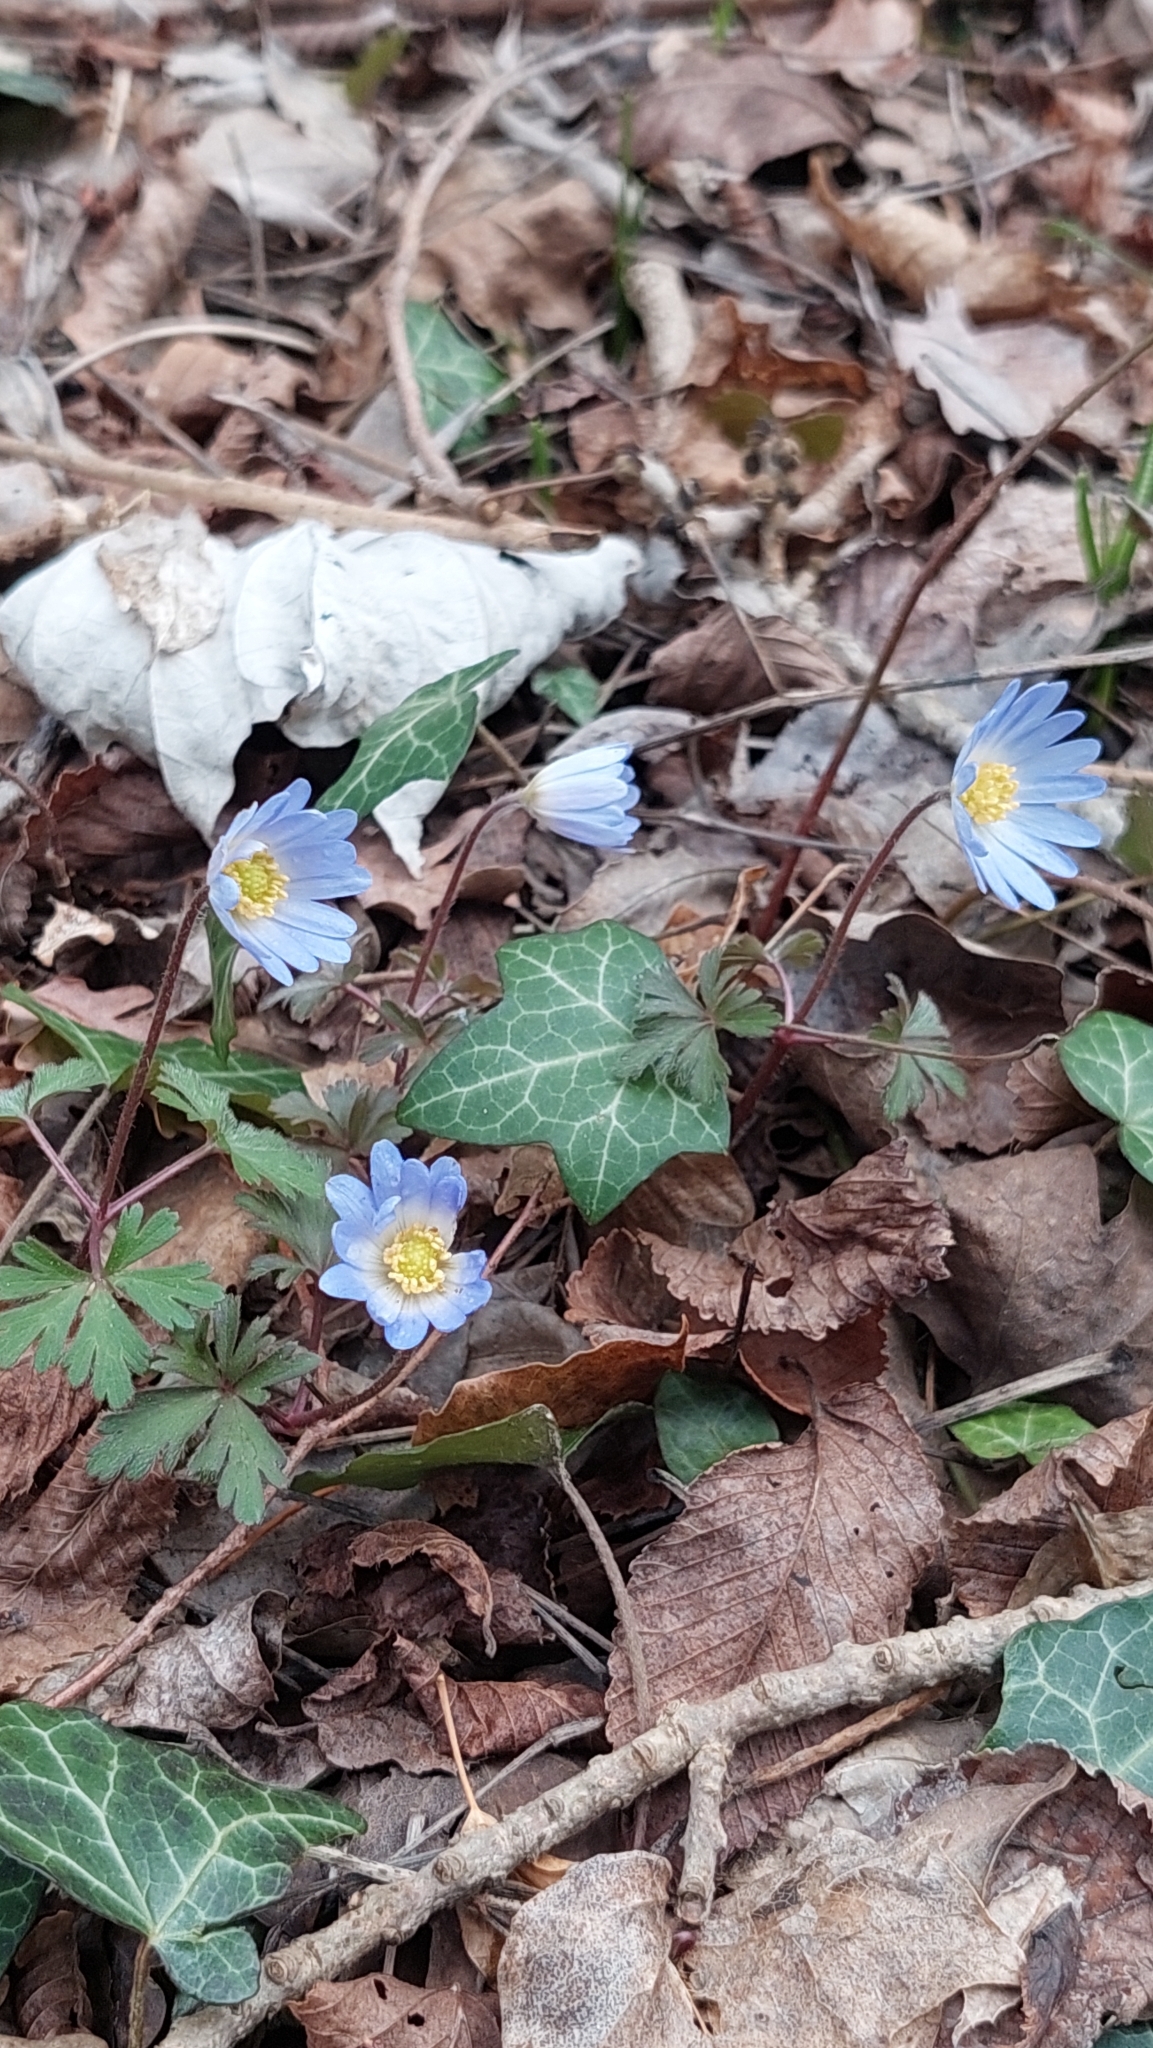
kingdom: Plantae
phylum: Tracheophyta
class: Magnoliopsida
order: Ranunculales
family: Ranunculaceae
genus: Anemone
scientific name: Anemone blanda
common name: Balkan anemone
